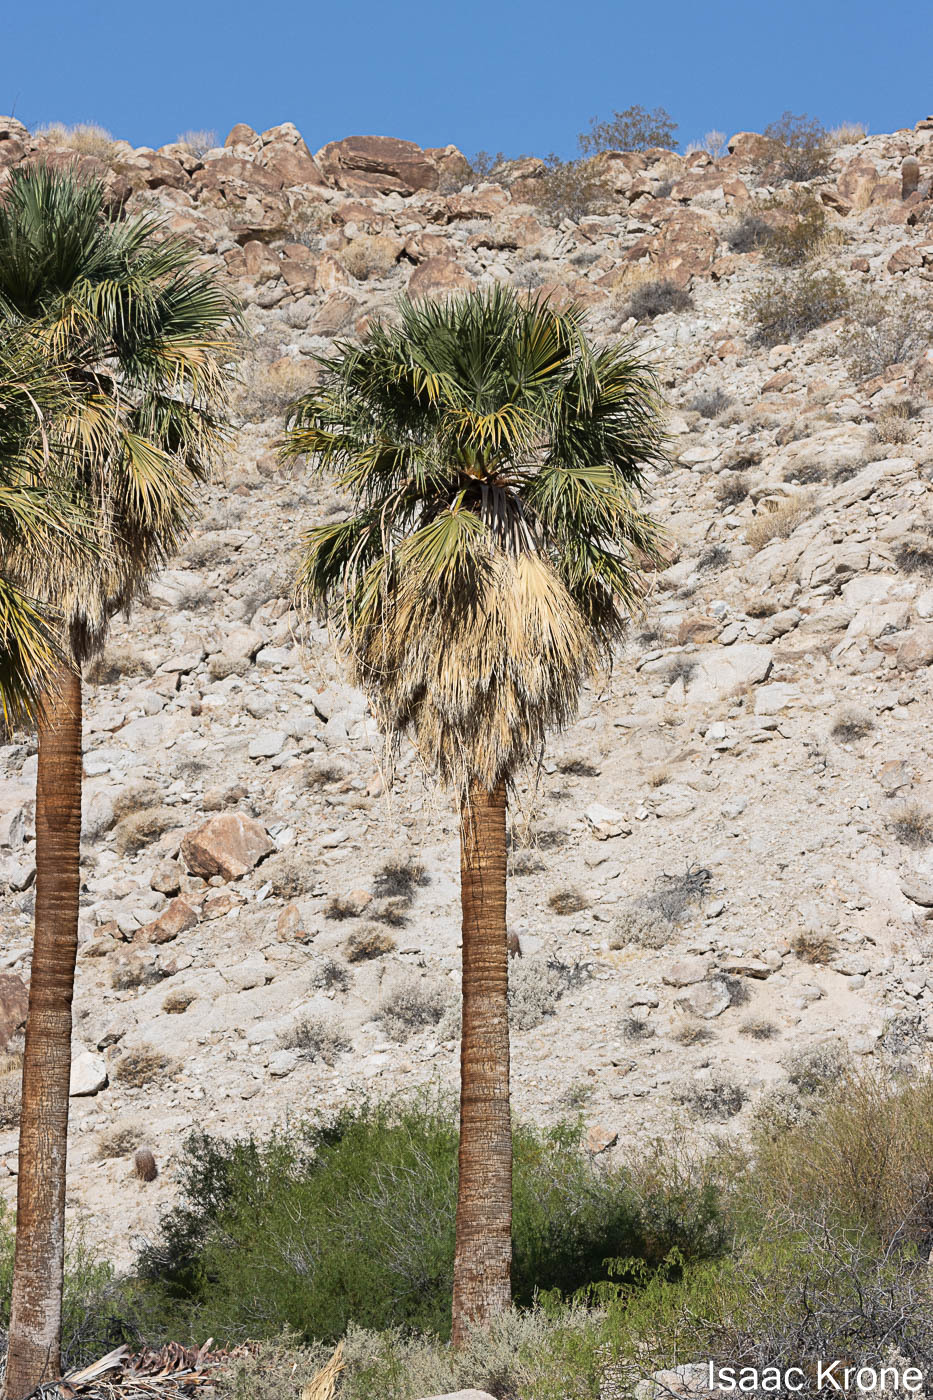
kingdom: Plantae
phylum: Tracheophyta
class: Liliopsida
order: Arecales
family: Arecaceae
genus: Washingtonia
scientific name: Washingtonia filifera
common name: California fan palm
